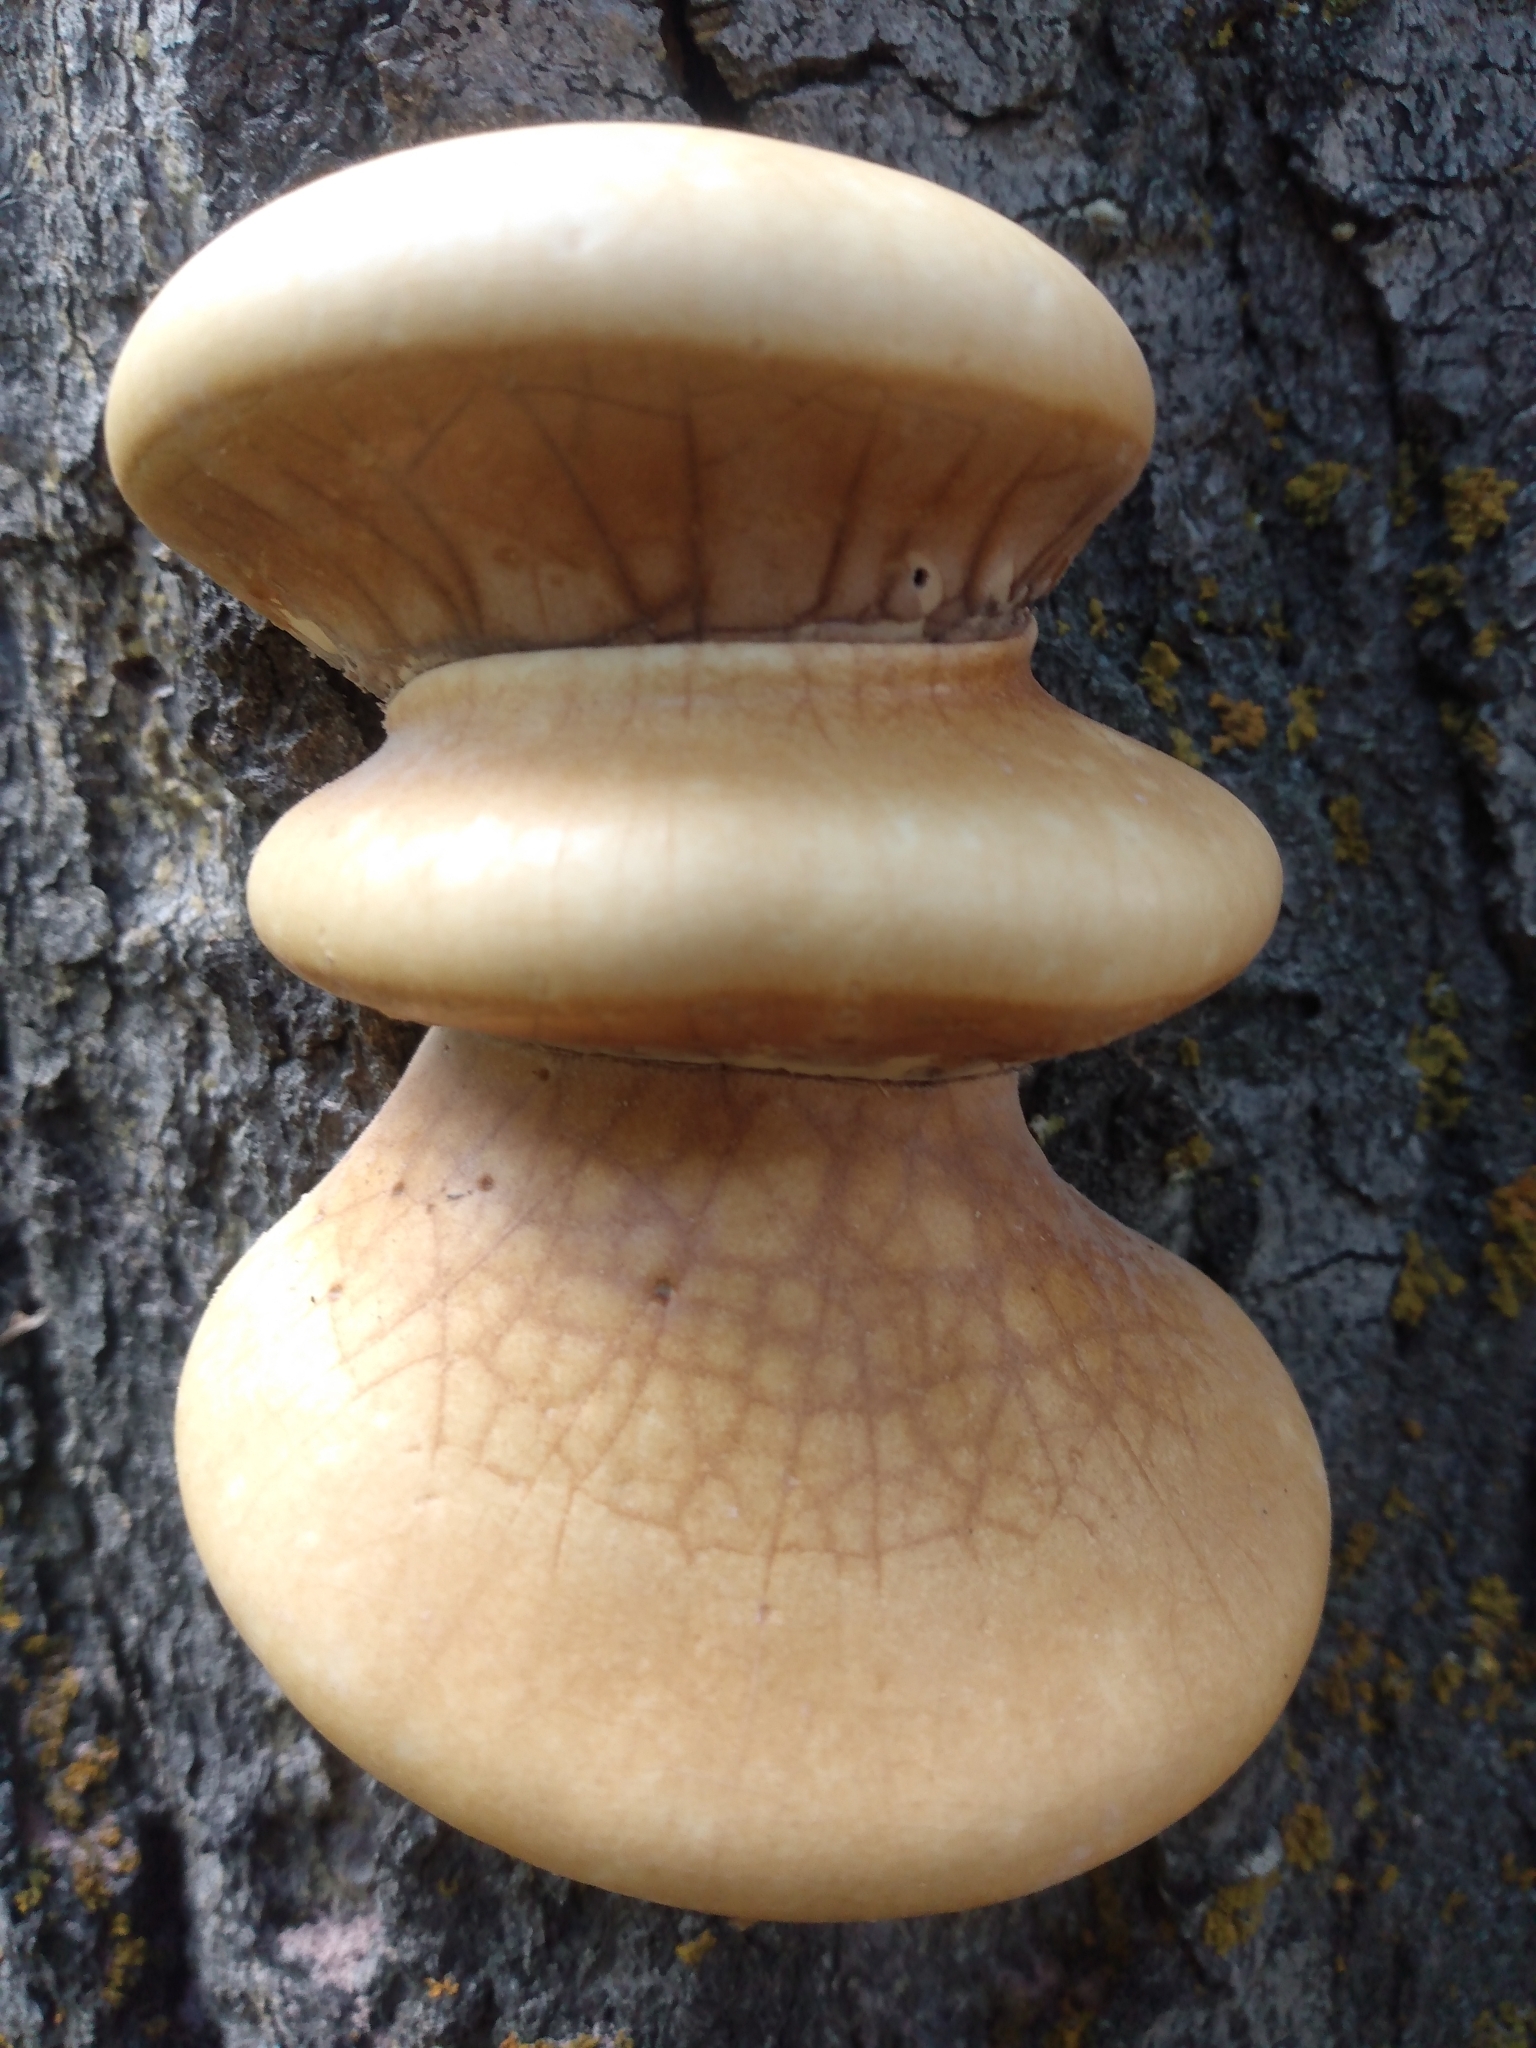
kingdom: Fungi
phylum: Basidiomycota
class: Agaricomycetes
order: Polyporales
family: Polyporaceae
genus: Cryptoporus
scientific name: Cryptoporus volvatus
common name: Veiled polypore
